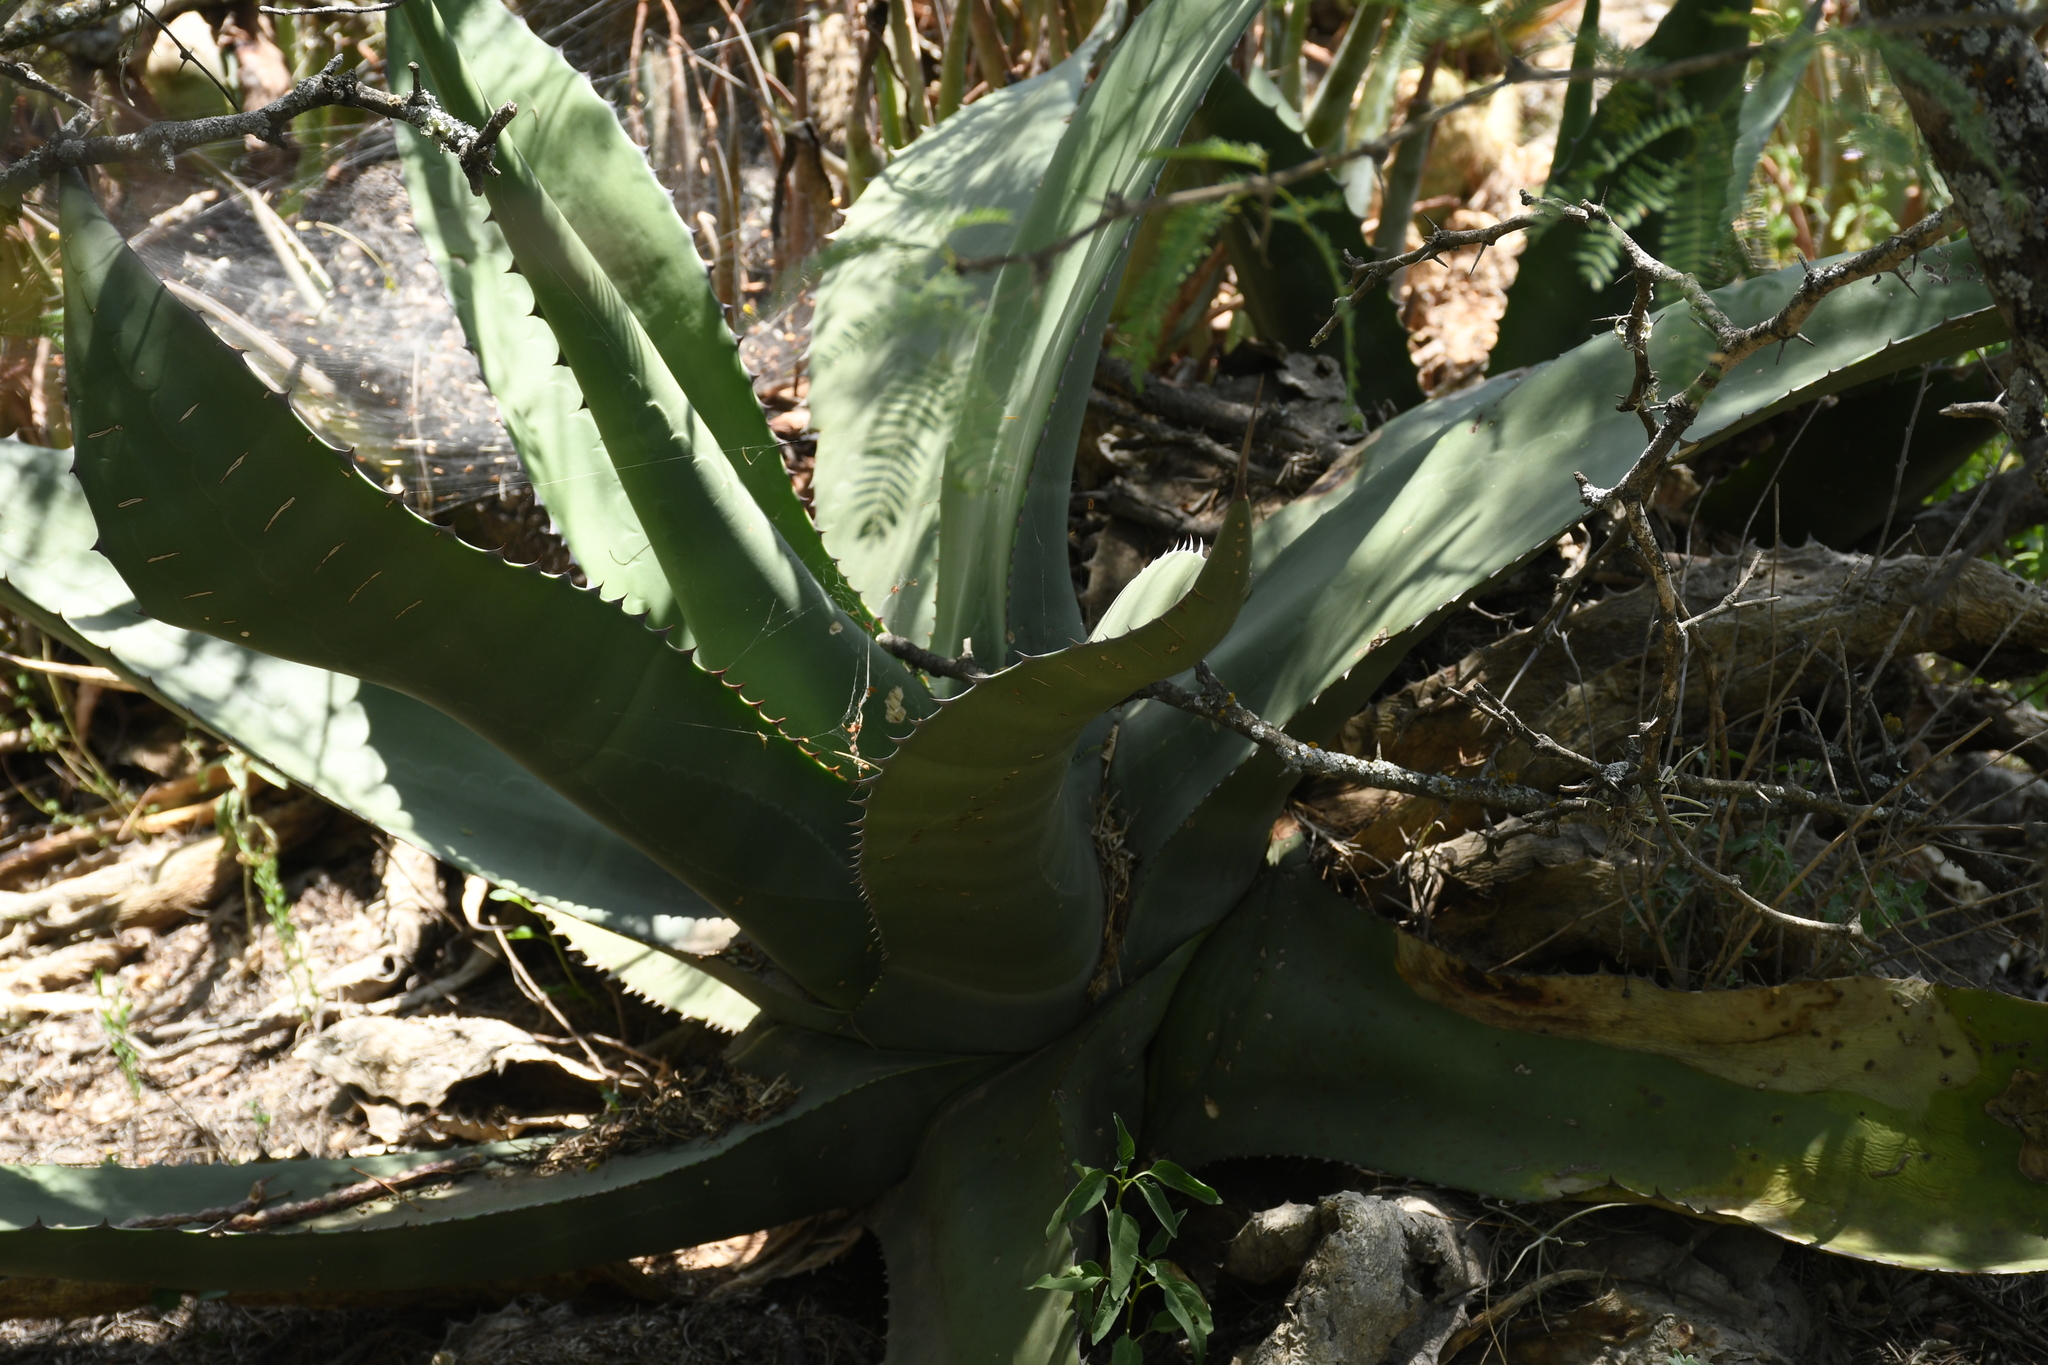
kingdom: Plantae
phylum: Tracheophyta
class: Liliopsida
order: Asparagales
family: Asparagaceae
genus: Agave
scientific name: Agave salmiana
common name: Pulque agave
